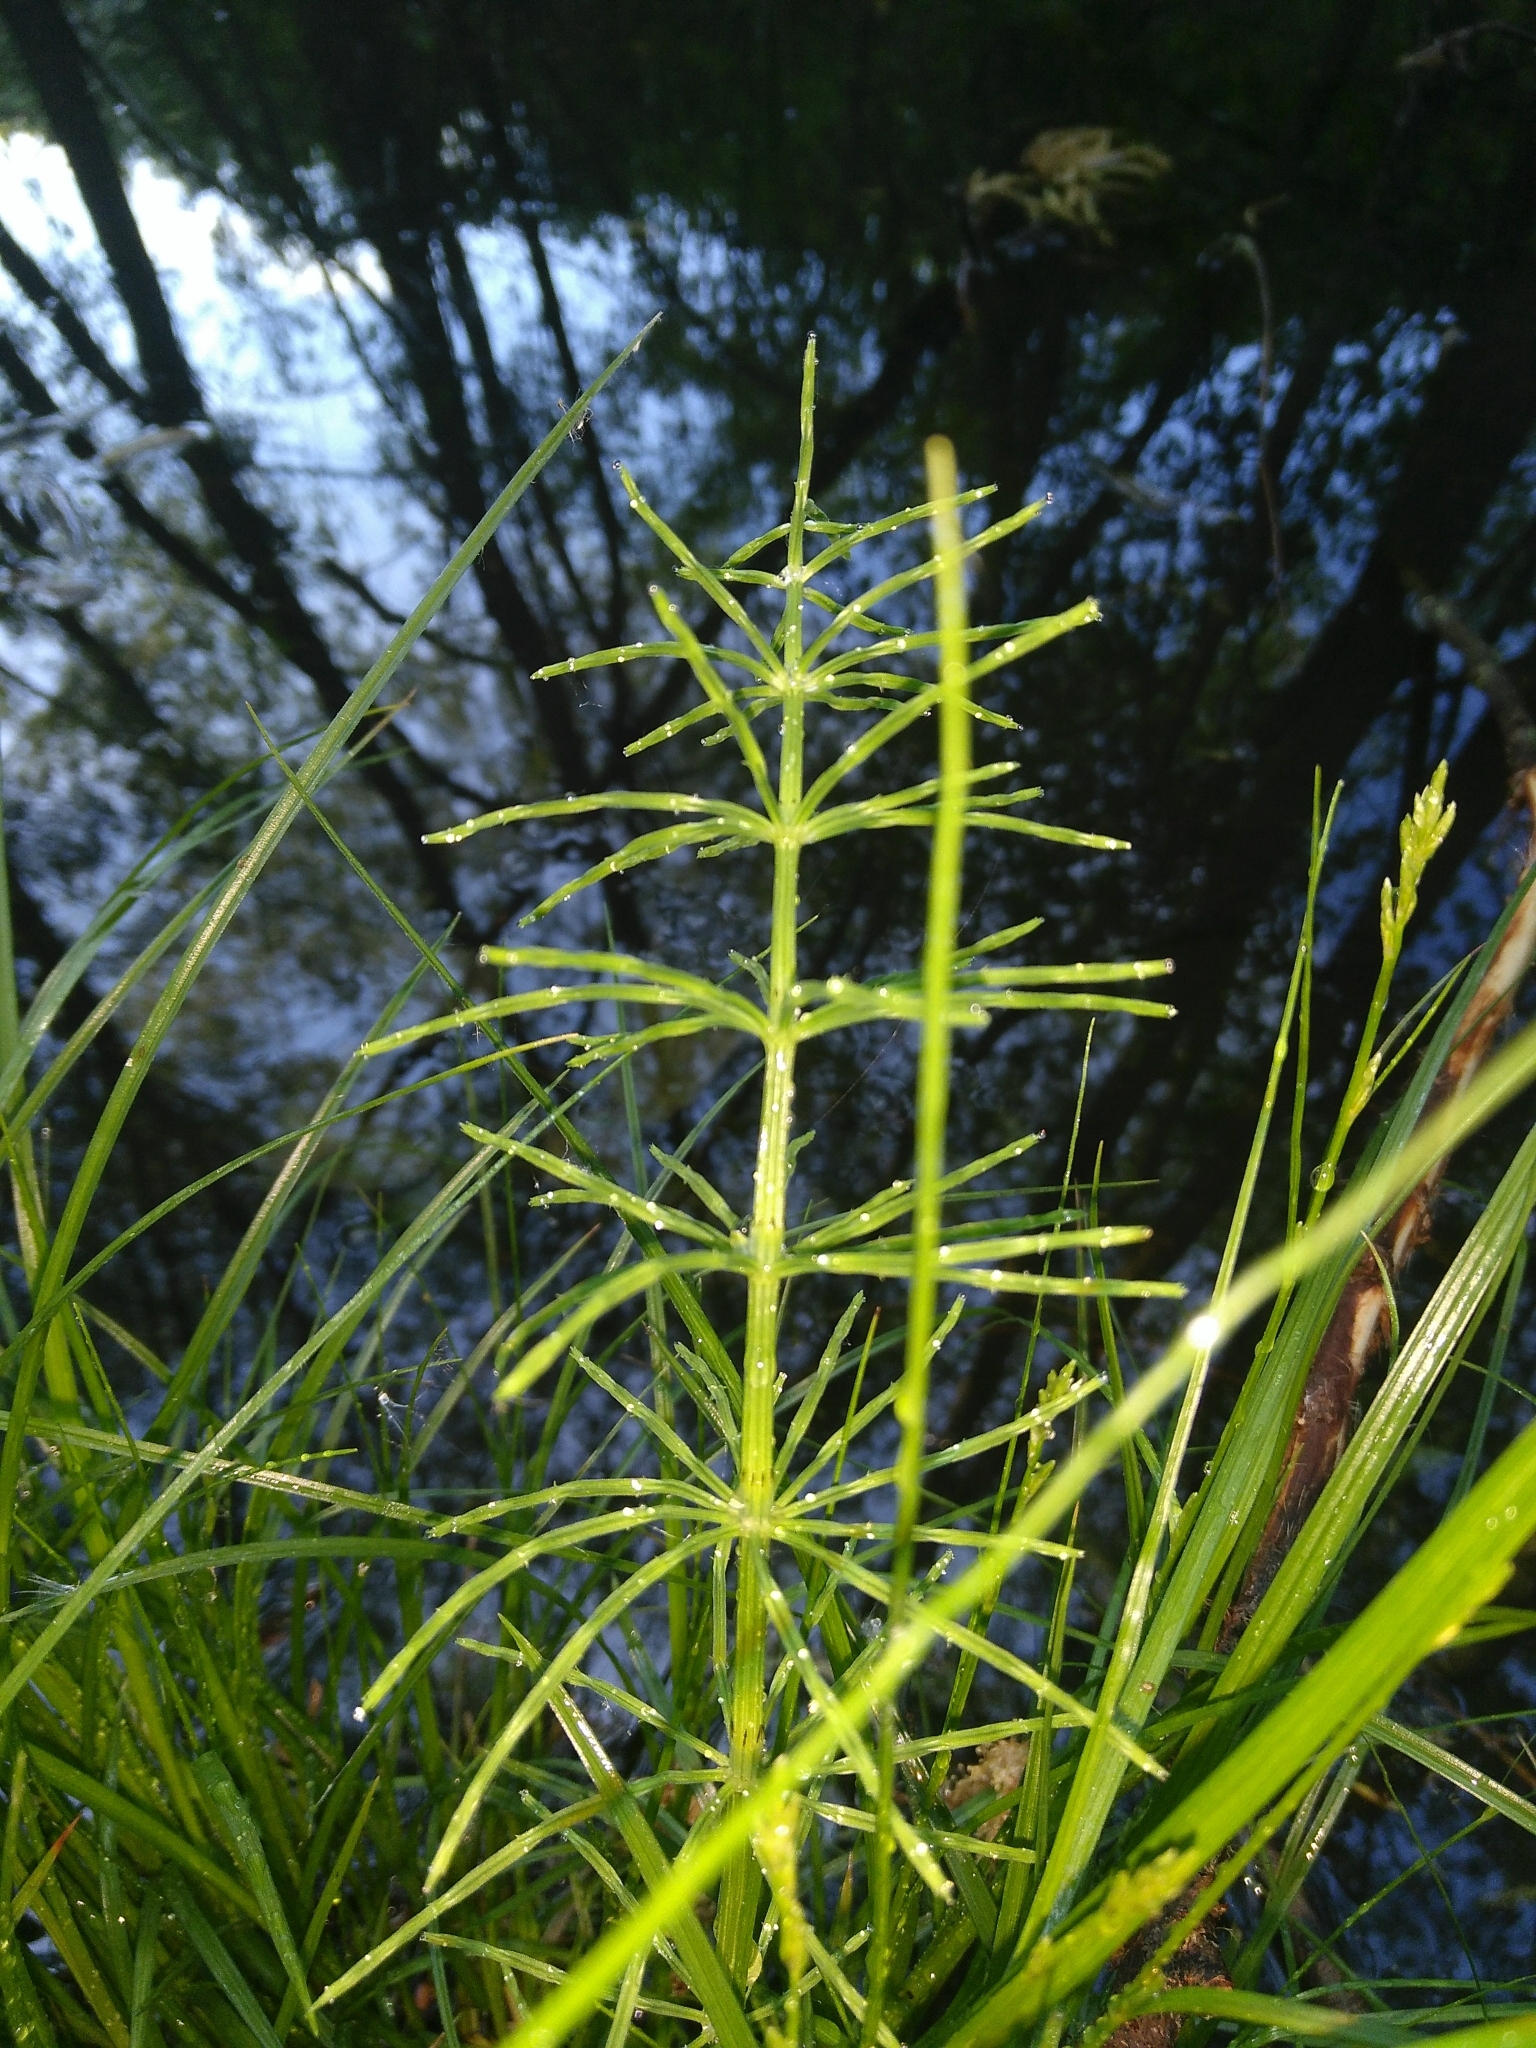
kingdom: Plantae
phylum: Tracheophyta
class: Polypodiopsida
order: Equisetales
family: Equisetaceae
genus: Equisetum
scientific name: Equisetum arvense
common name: Field horsetail
